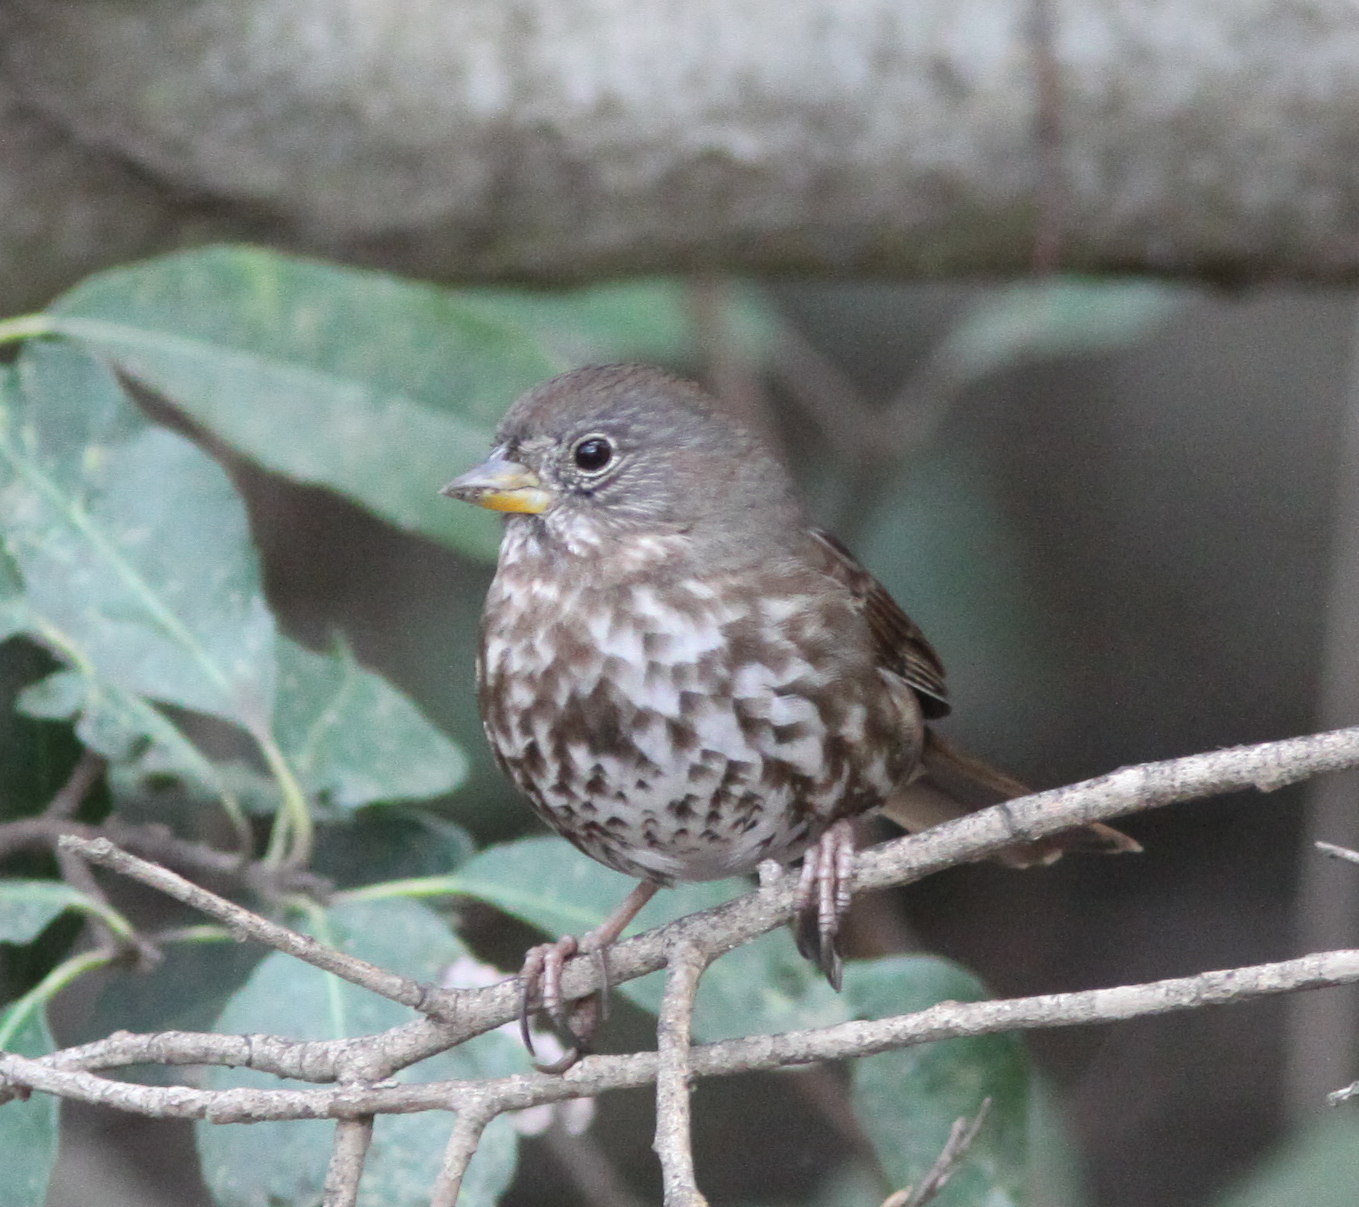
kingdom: Animalia
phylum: Chordata
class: Aves
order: Passeriformes
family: Passerellidae
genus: Passerella
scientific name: Passerella iliaca
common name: Fox sparrow
